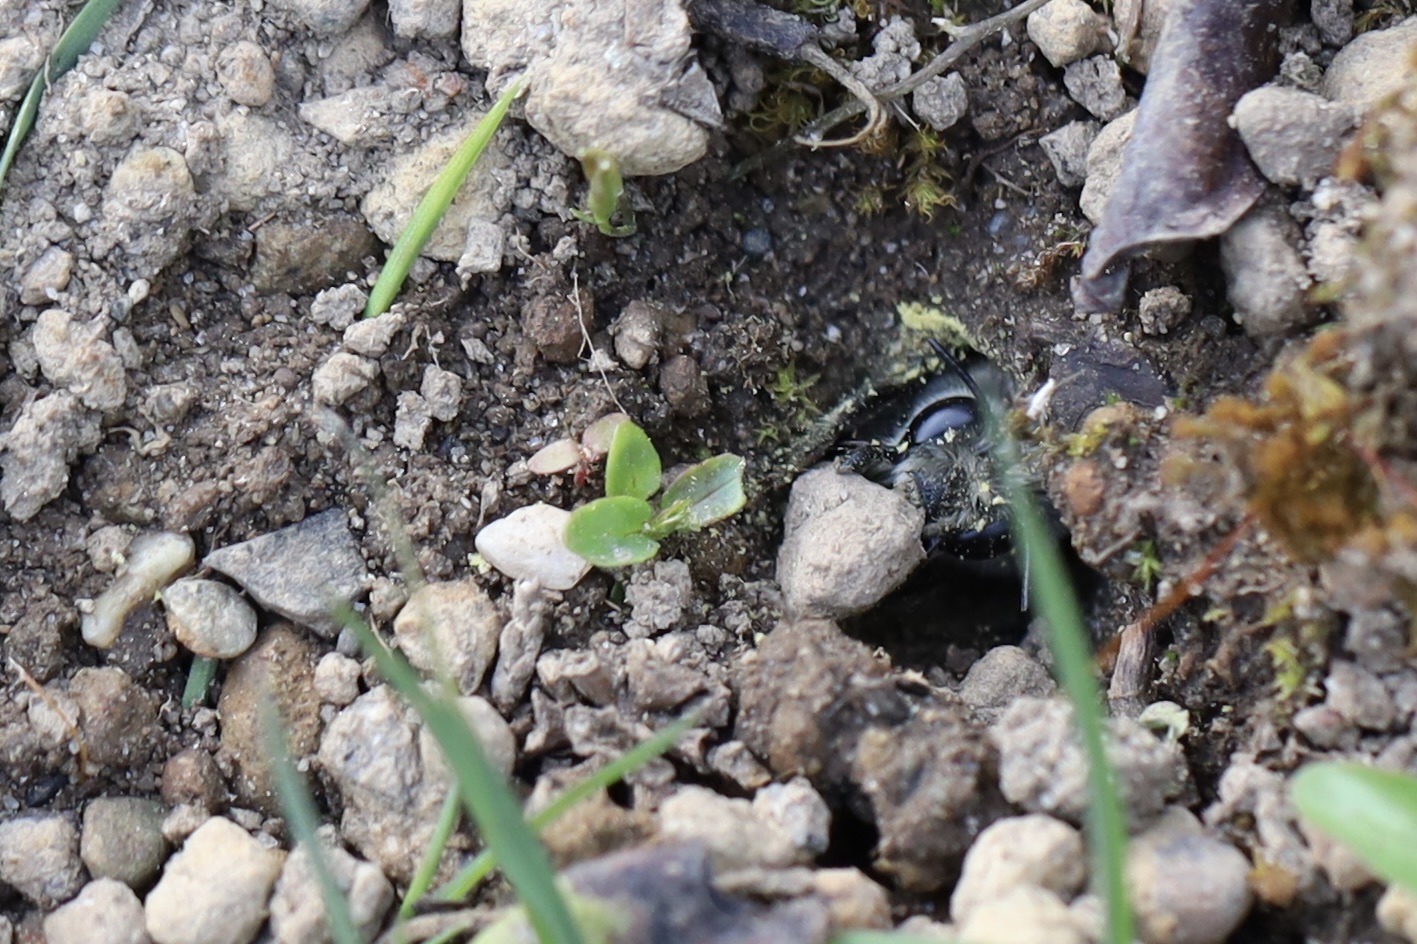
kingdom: Animalia
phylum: Arthropoda
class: Insecta
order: Hymenoptera
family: Apidae
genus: Anthophora
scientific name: Anthophora pacifica
